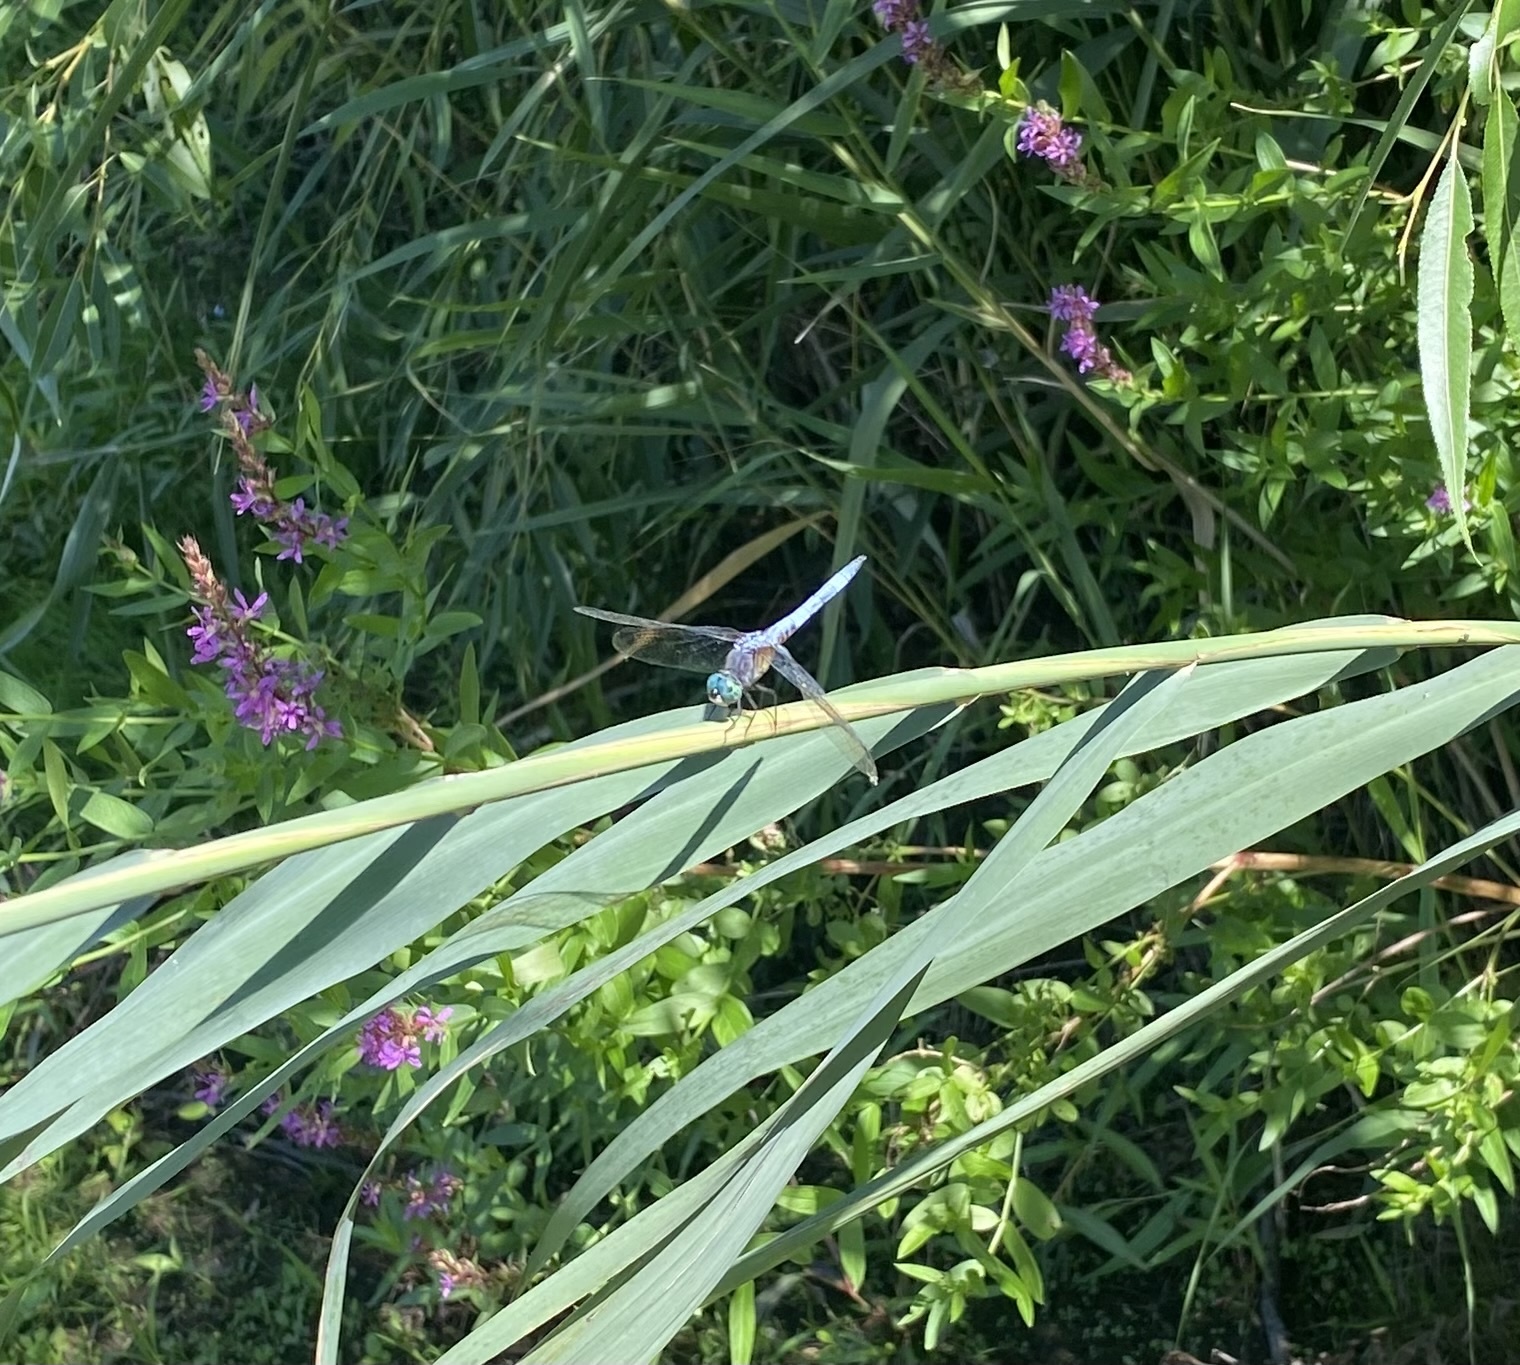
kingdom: Animalia
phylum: Arthropoda
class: Insecta
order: Odonata
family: Libellulidae
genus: Pachydiplax
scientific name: Pachydiplax longipennis
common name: Blue dasher
